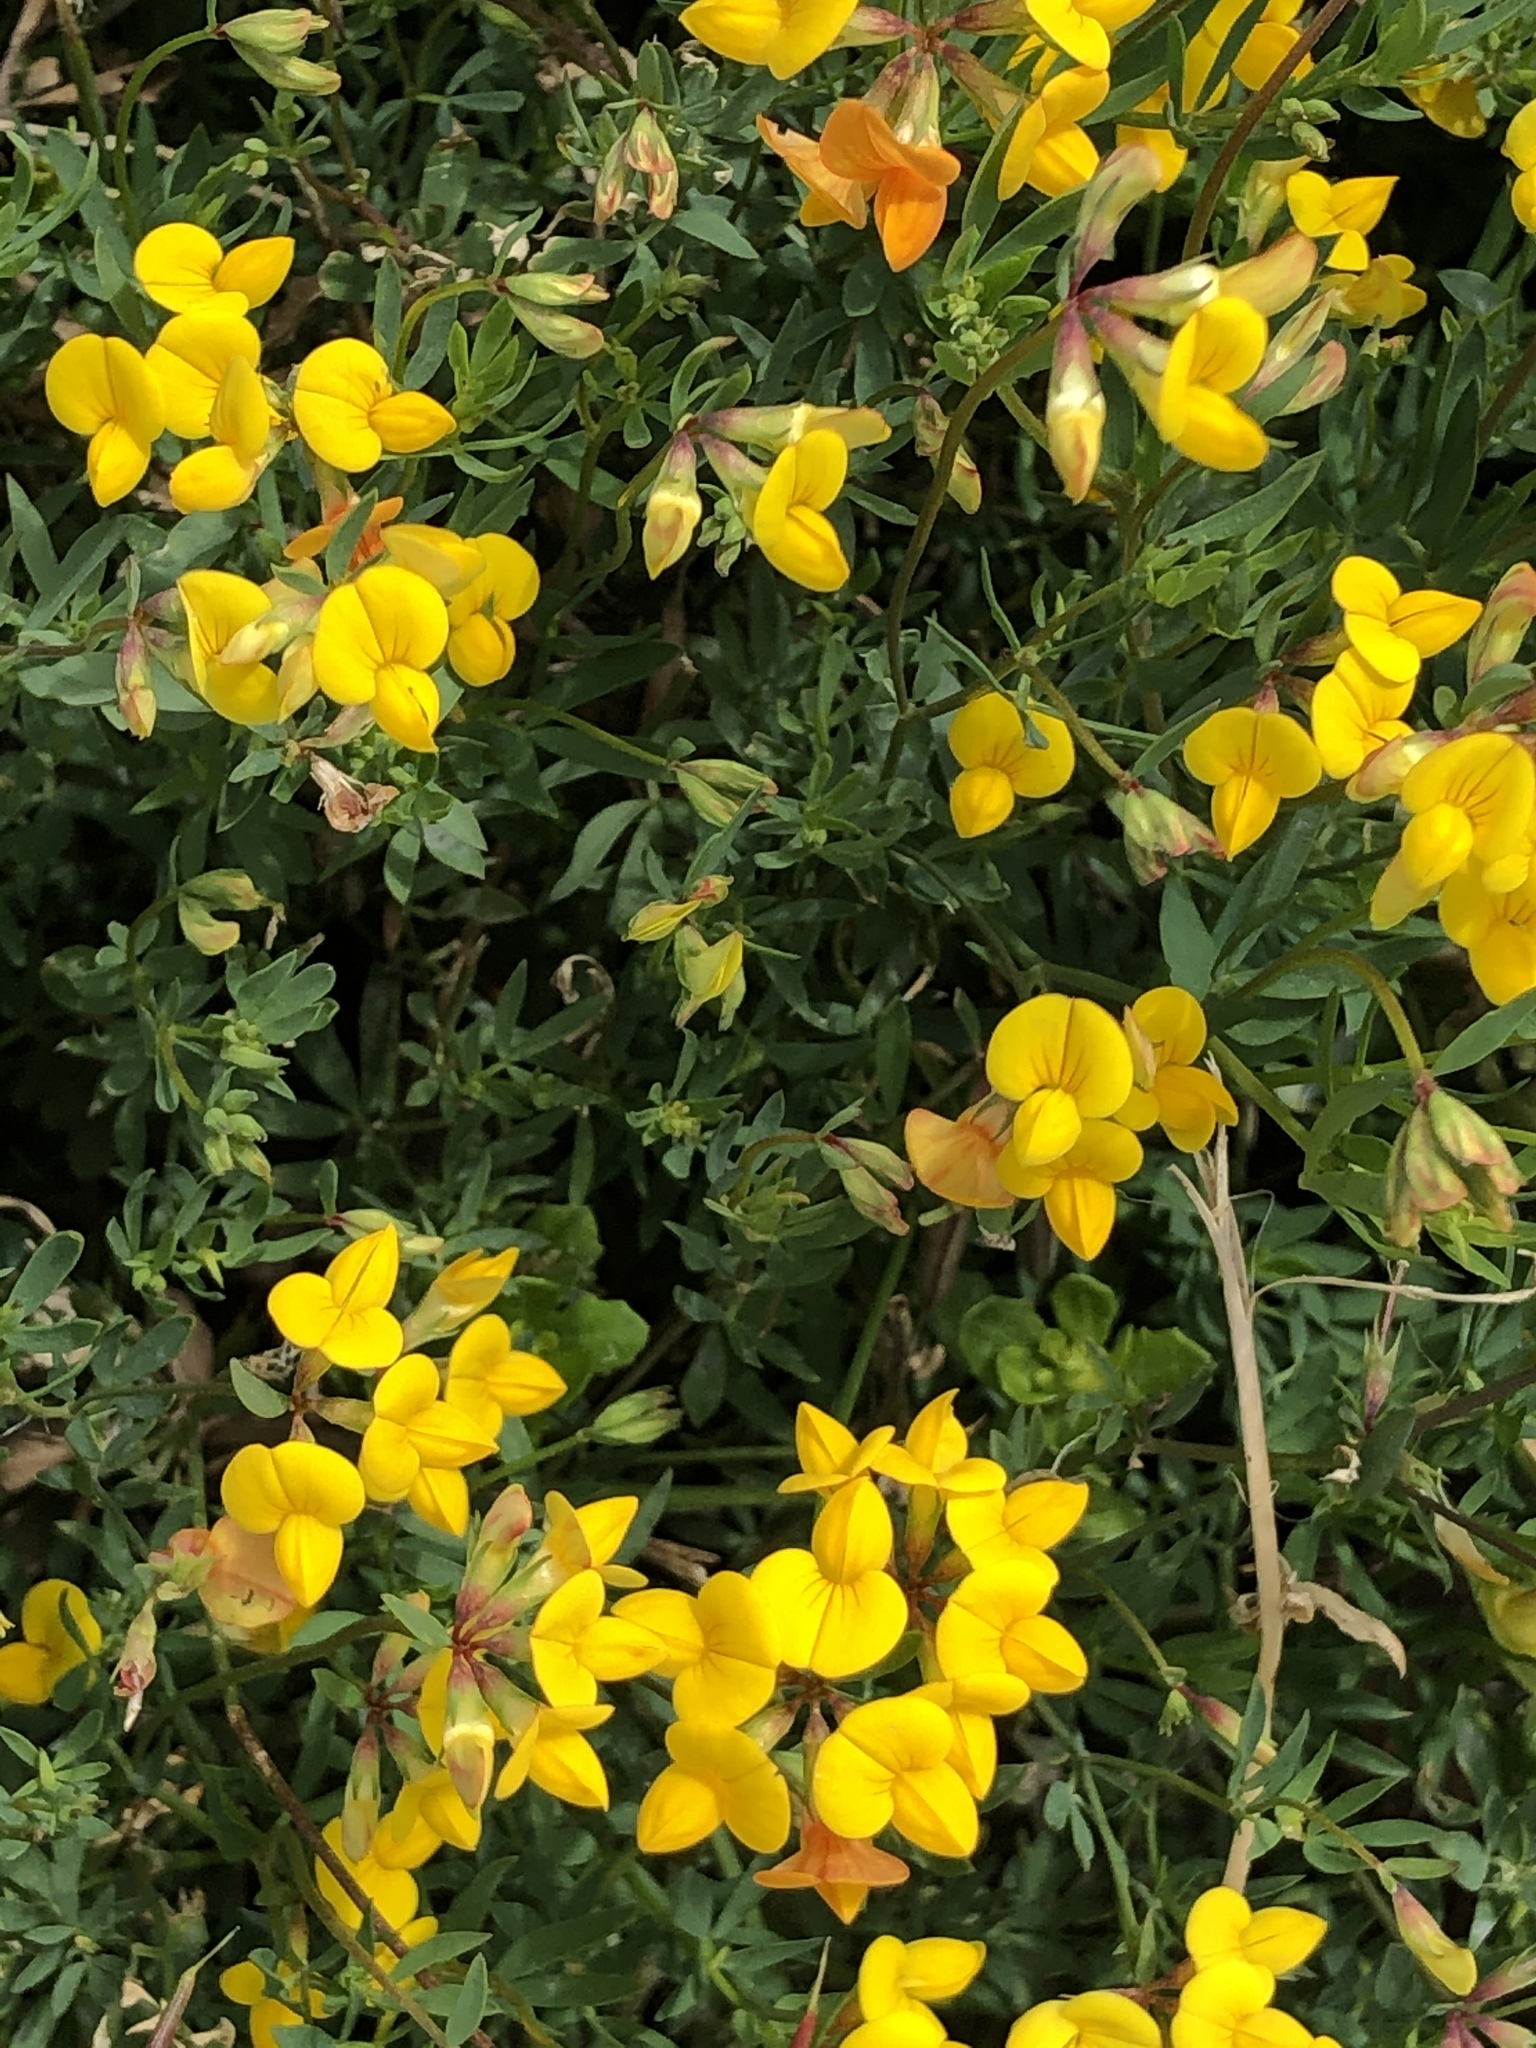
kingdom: Plantae
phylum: Tracheophyta
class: Magnoliopsida
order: Fabales
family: Fabaceae
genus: Lotus
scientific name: Lotus corniculatus
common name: Common bird's-foot-trefoil
